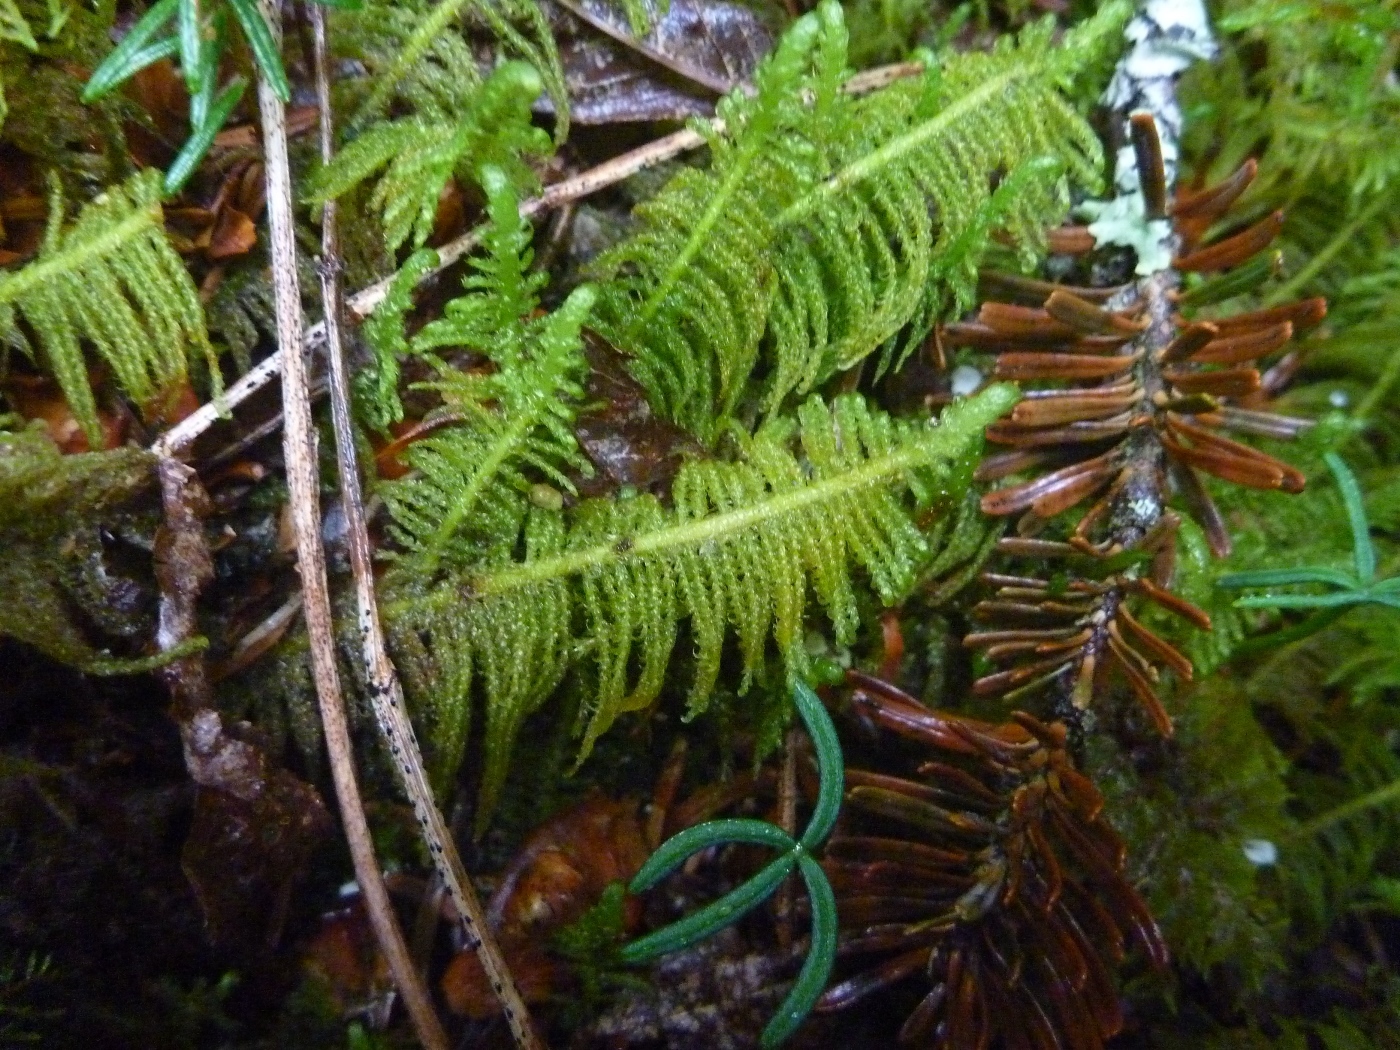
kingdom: Plantae
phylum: Bryophyta
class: Bryopsida
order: Hypnales
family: Pylaisiaceae
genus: Ptilium
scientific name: Ptilium crista-castrensis
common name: Knight's plume moss
